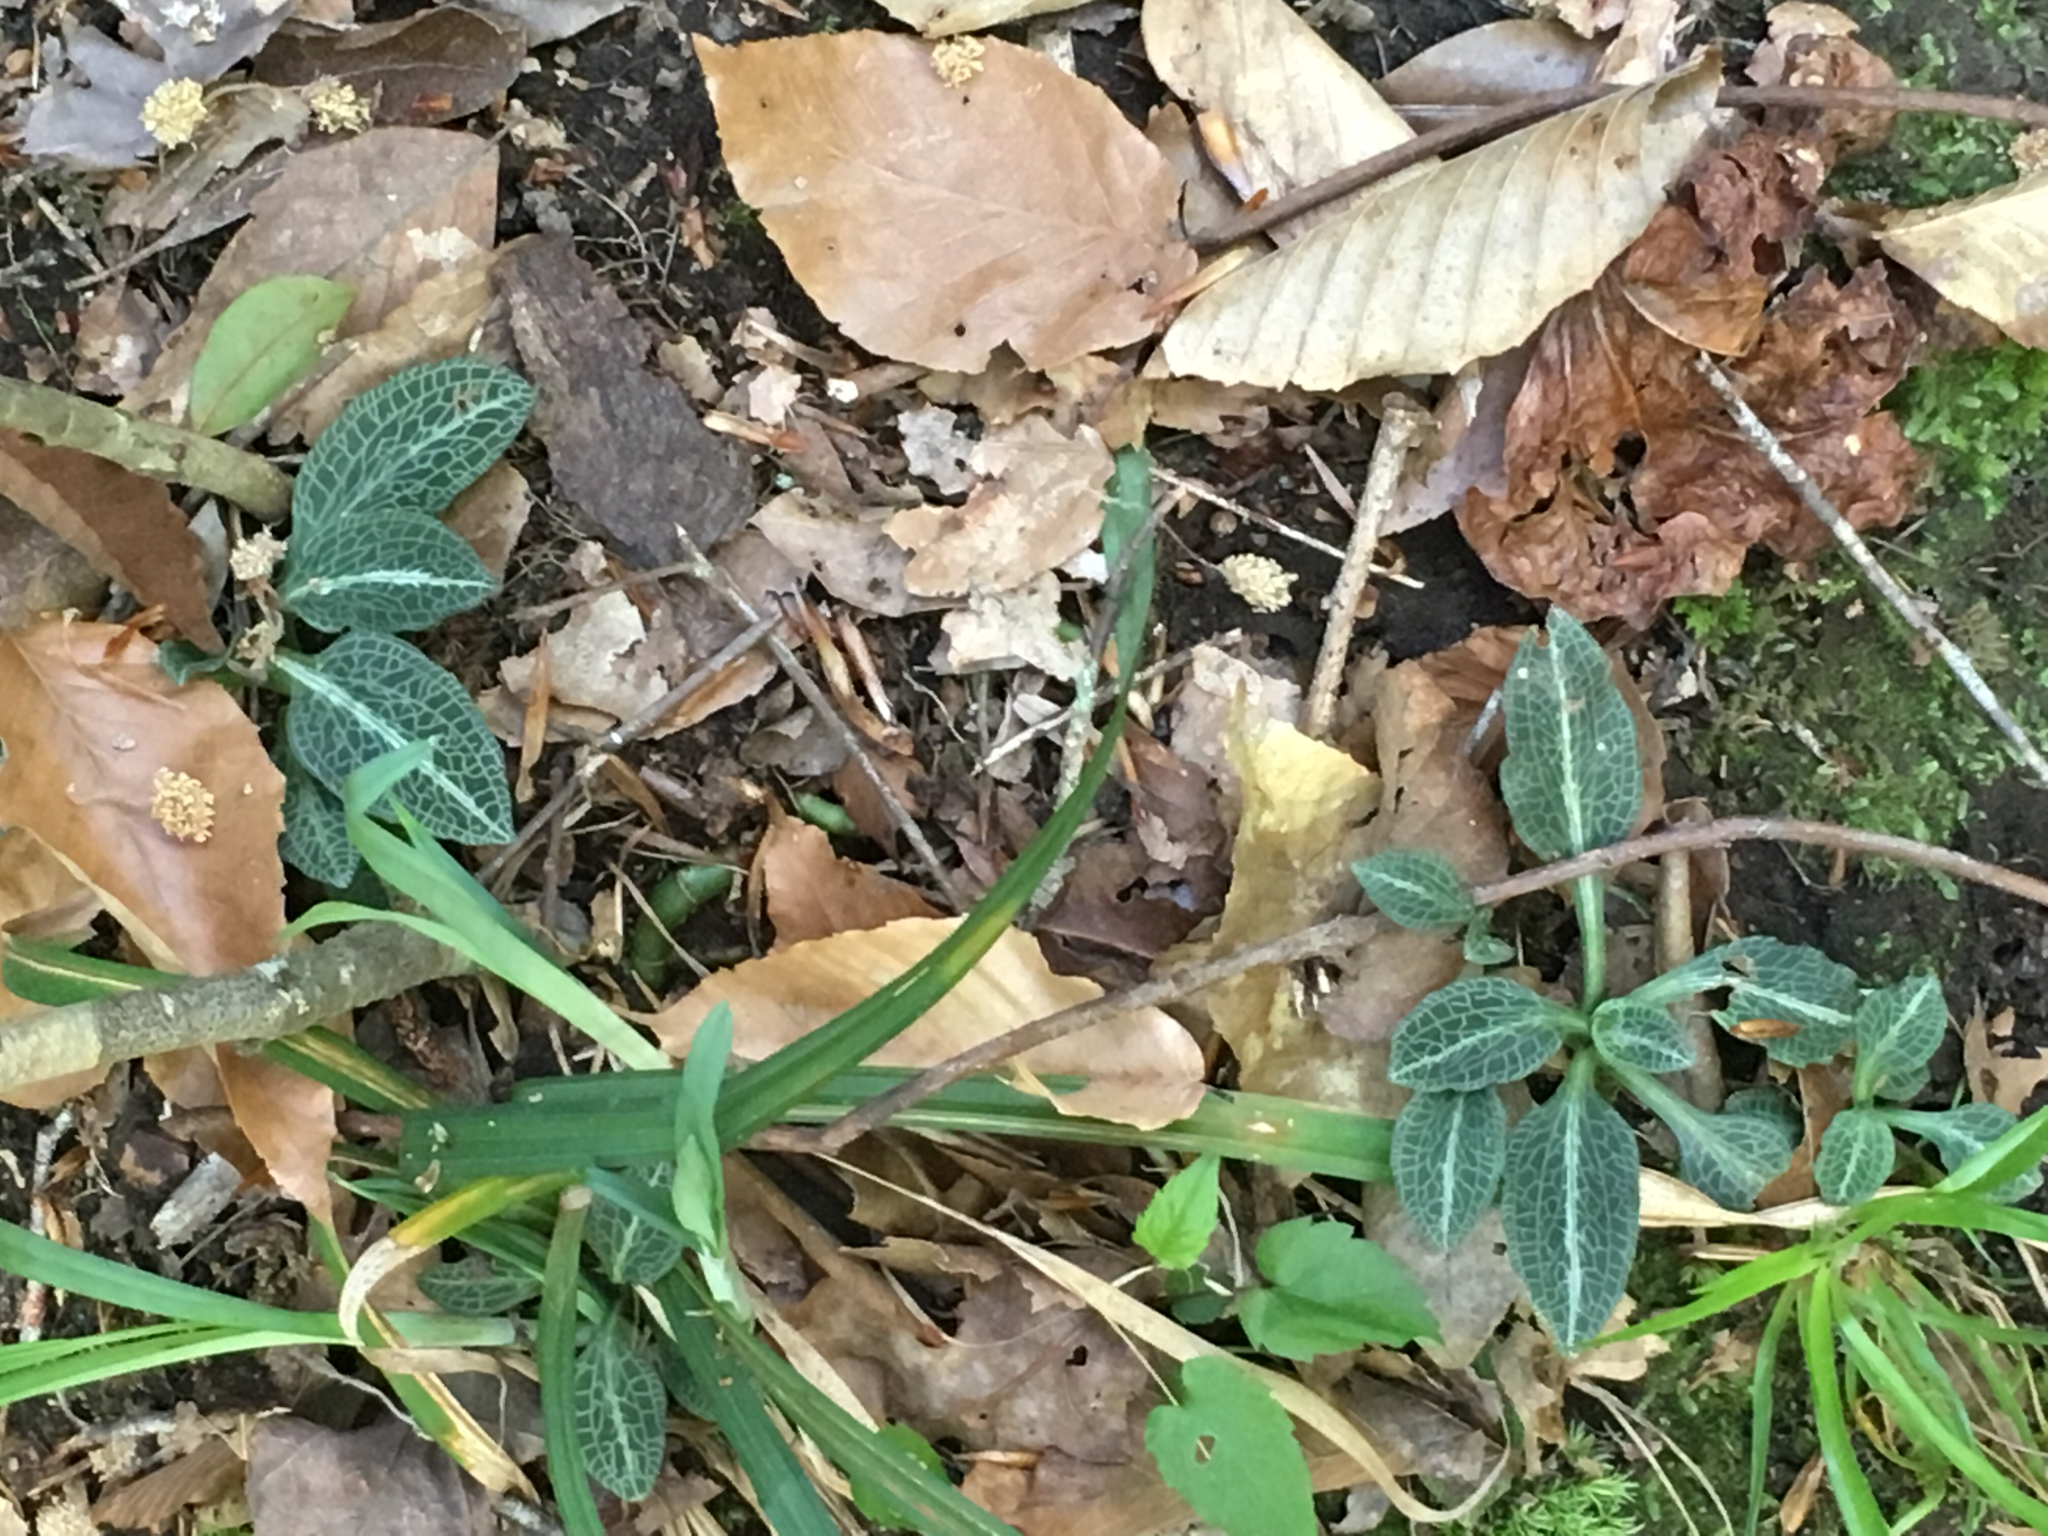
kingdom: Plantae
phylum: Tracheophyta
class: Liliopsida
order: Asparagales
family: Orchidaceae
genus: Goodyera
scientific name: Goodyera pubescens
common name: Downy rattlesnake-plantain
